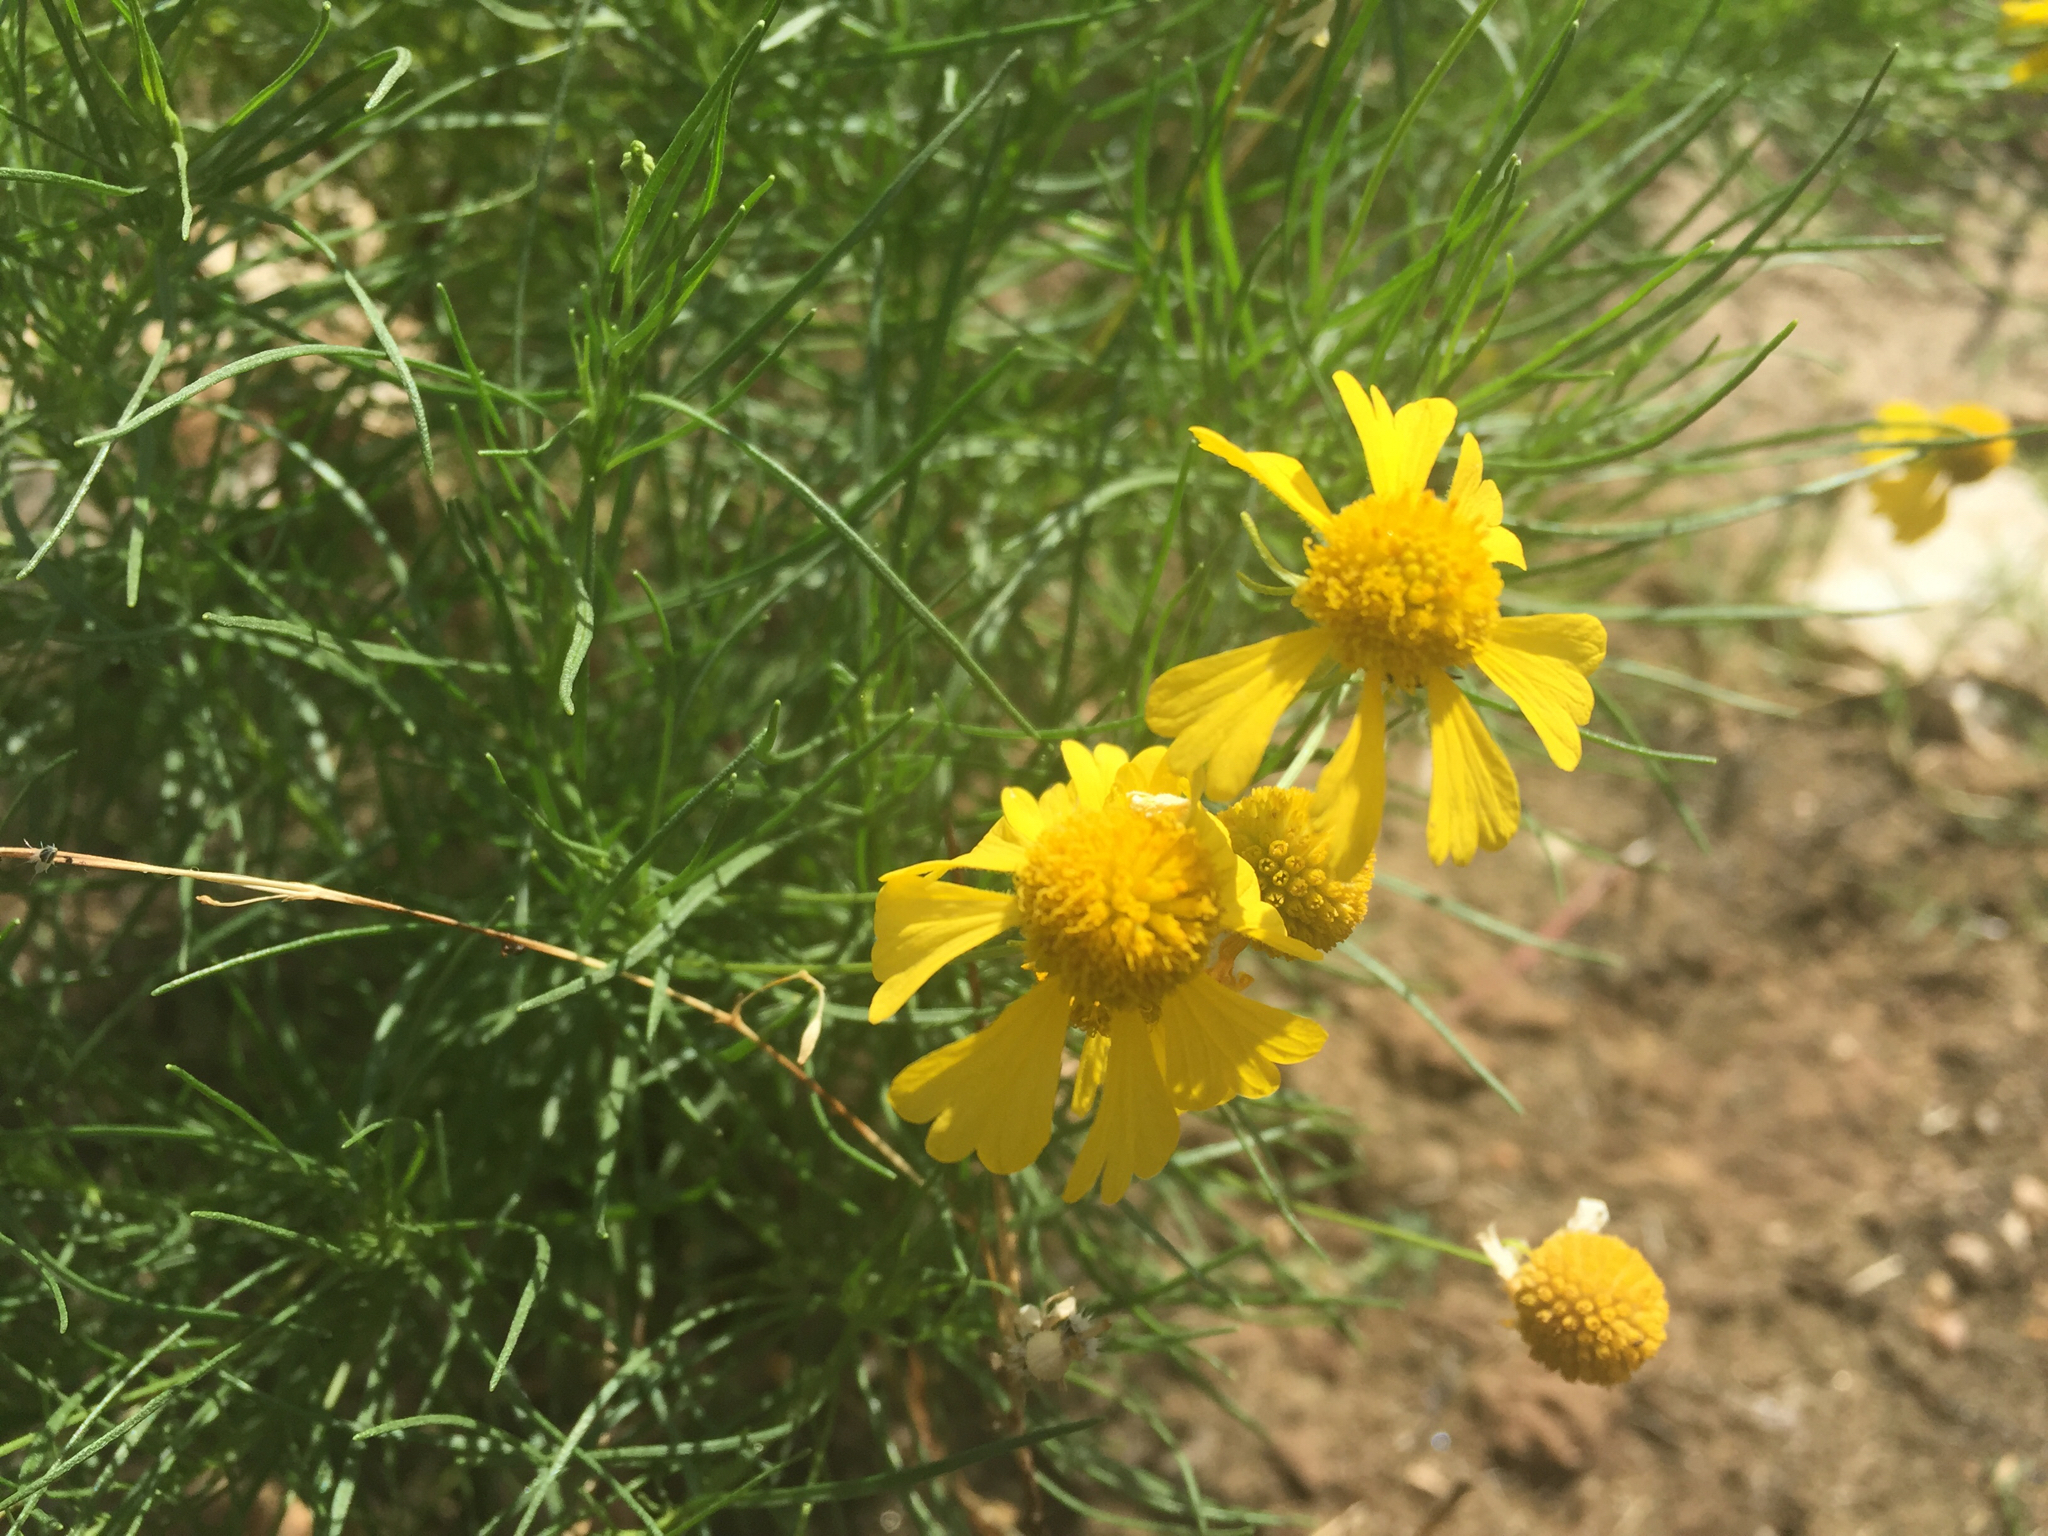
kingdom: Plantae
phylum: Tracheophyta
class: Magnoliopsida
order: Asterales
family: Asteraceae
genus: Helenium
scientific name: Helenium amarum
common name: Bitter sneezeweed
